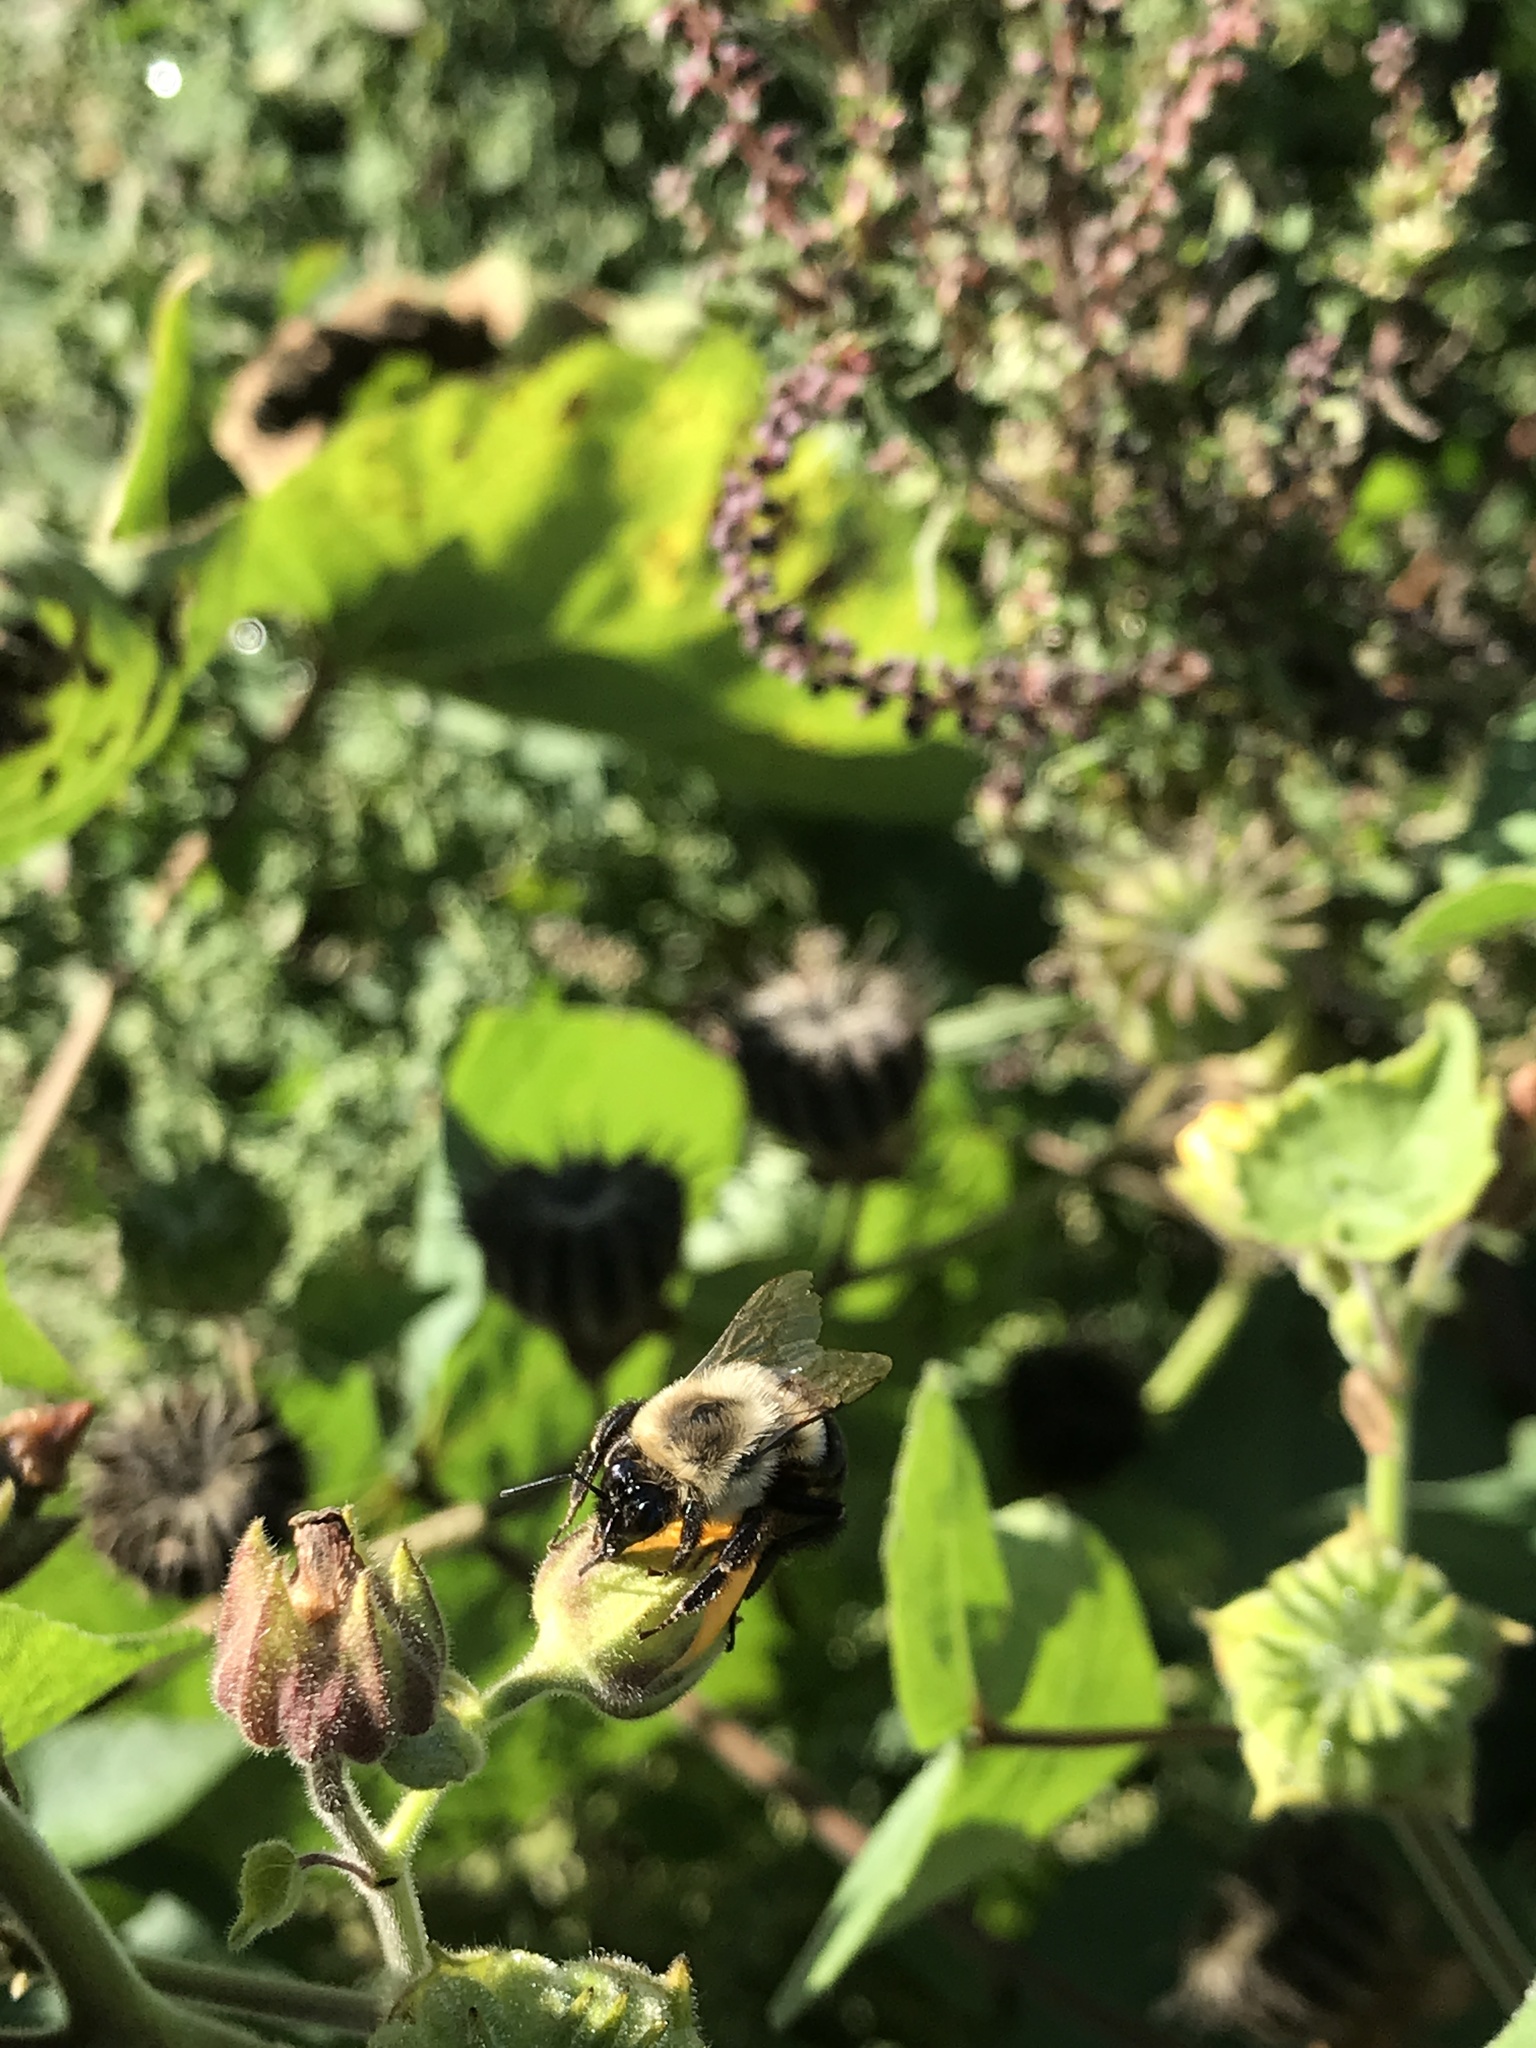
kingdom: Animalia
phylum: Arthropoda
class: Insecta
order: Hymenoptera
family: Apidae
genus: Bombus
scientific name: Bombus impatiens
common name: Common eastern bumble bee
